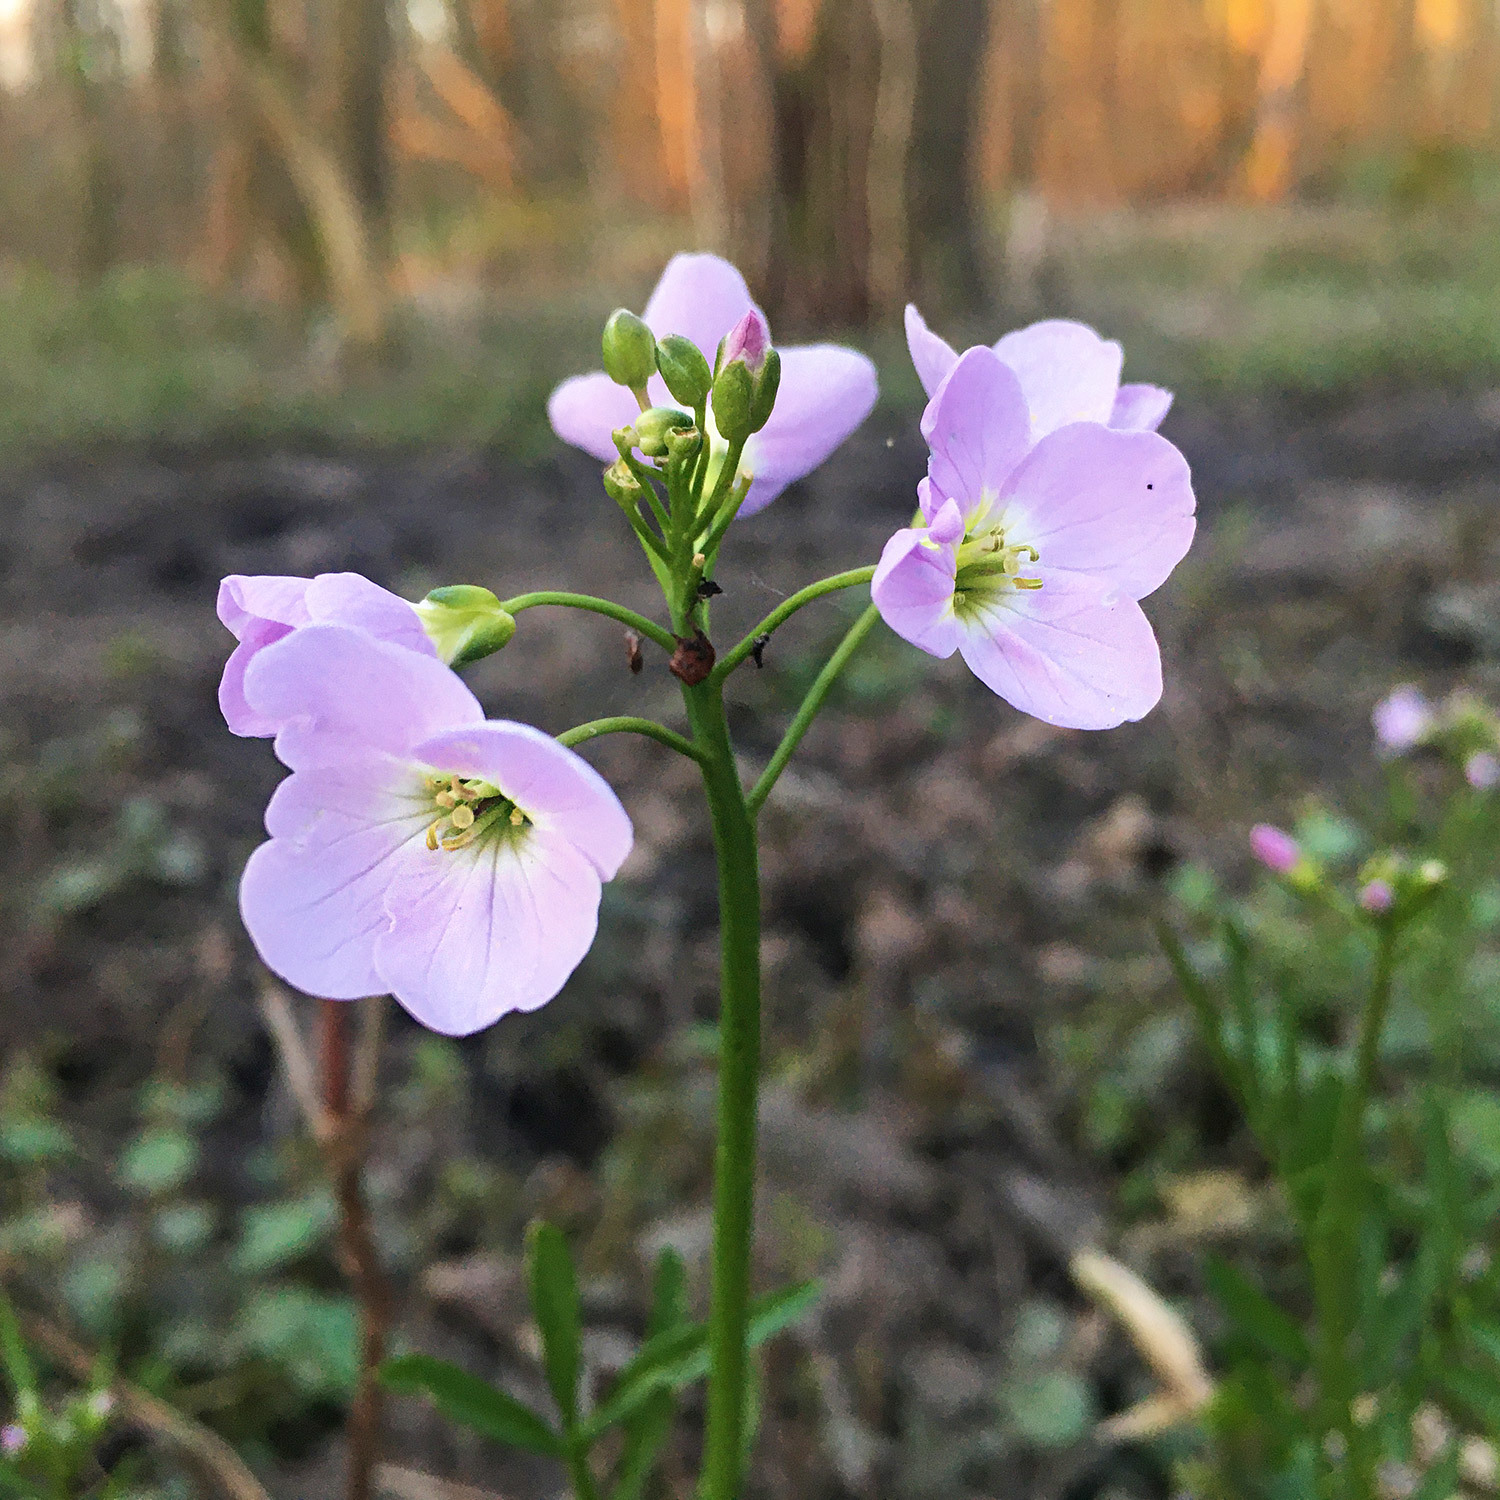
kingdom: Plantae
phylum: Tracheophyta
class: Magnoliopsida
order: Brassicales
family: Brassicaceae
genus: Cardamine
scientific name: Cardamine pratensis
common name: Cuckoo flower
